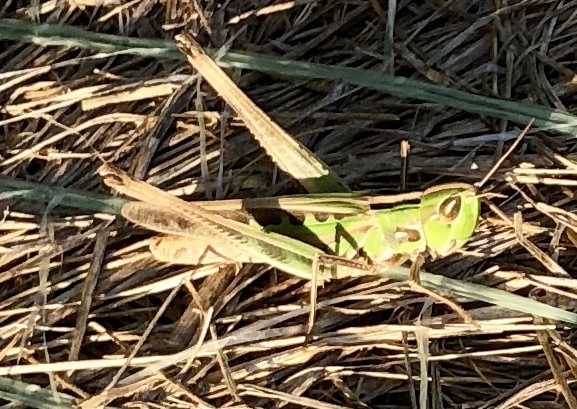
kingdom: Animalia
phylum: Arthropoda
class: Insecta
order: Orthoptera
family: Acrididae
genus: Syrbula
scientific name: Syrbula admirabilis
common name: Handsome grasshopper
